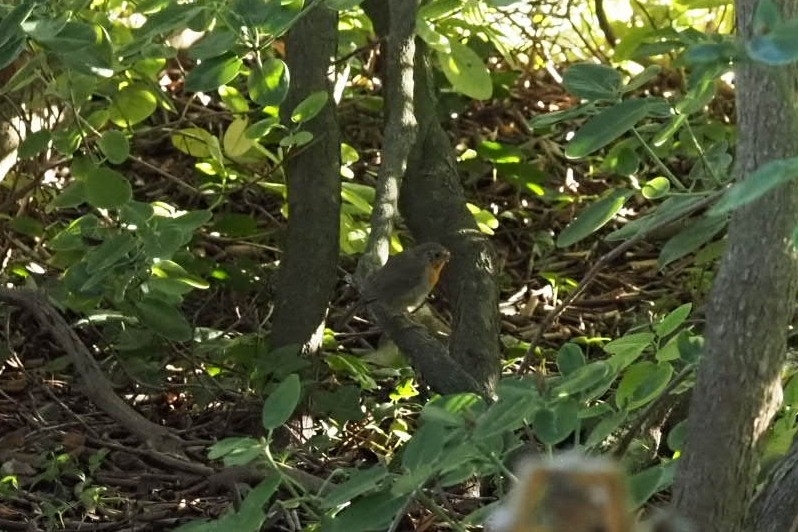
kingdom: Animalia
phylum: Chordata
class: Aves
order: Passeriformes
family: Muscicapidae
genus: Erithacus
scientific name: Erithacus rubecula
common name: European robin
